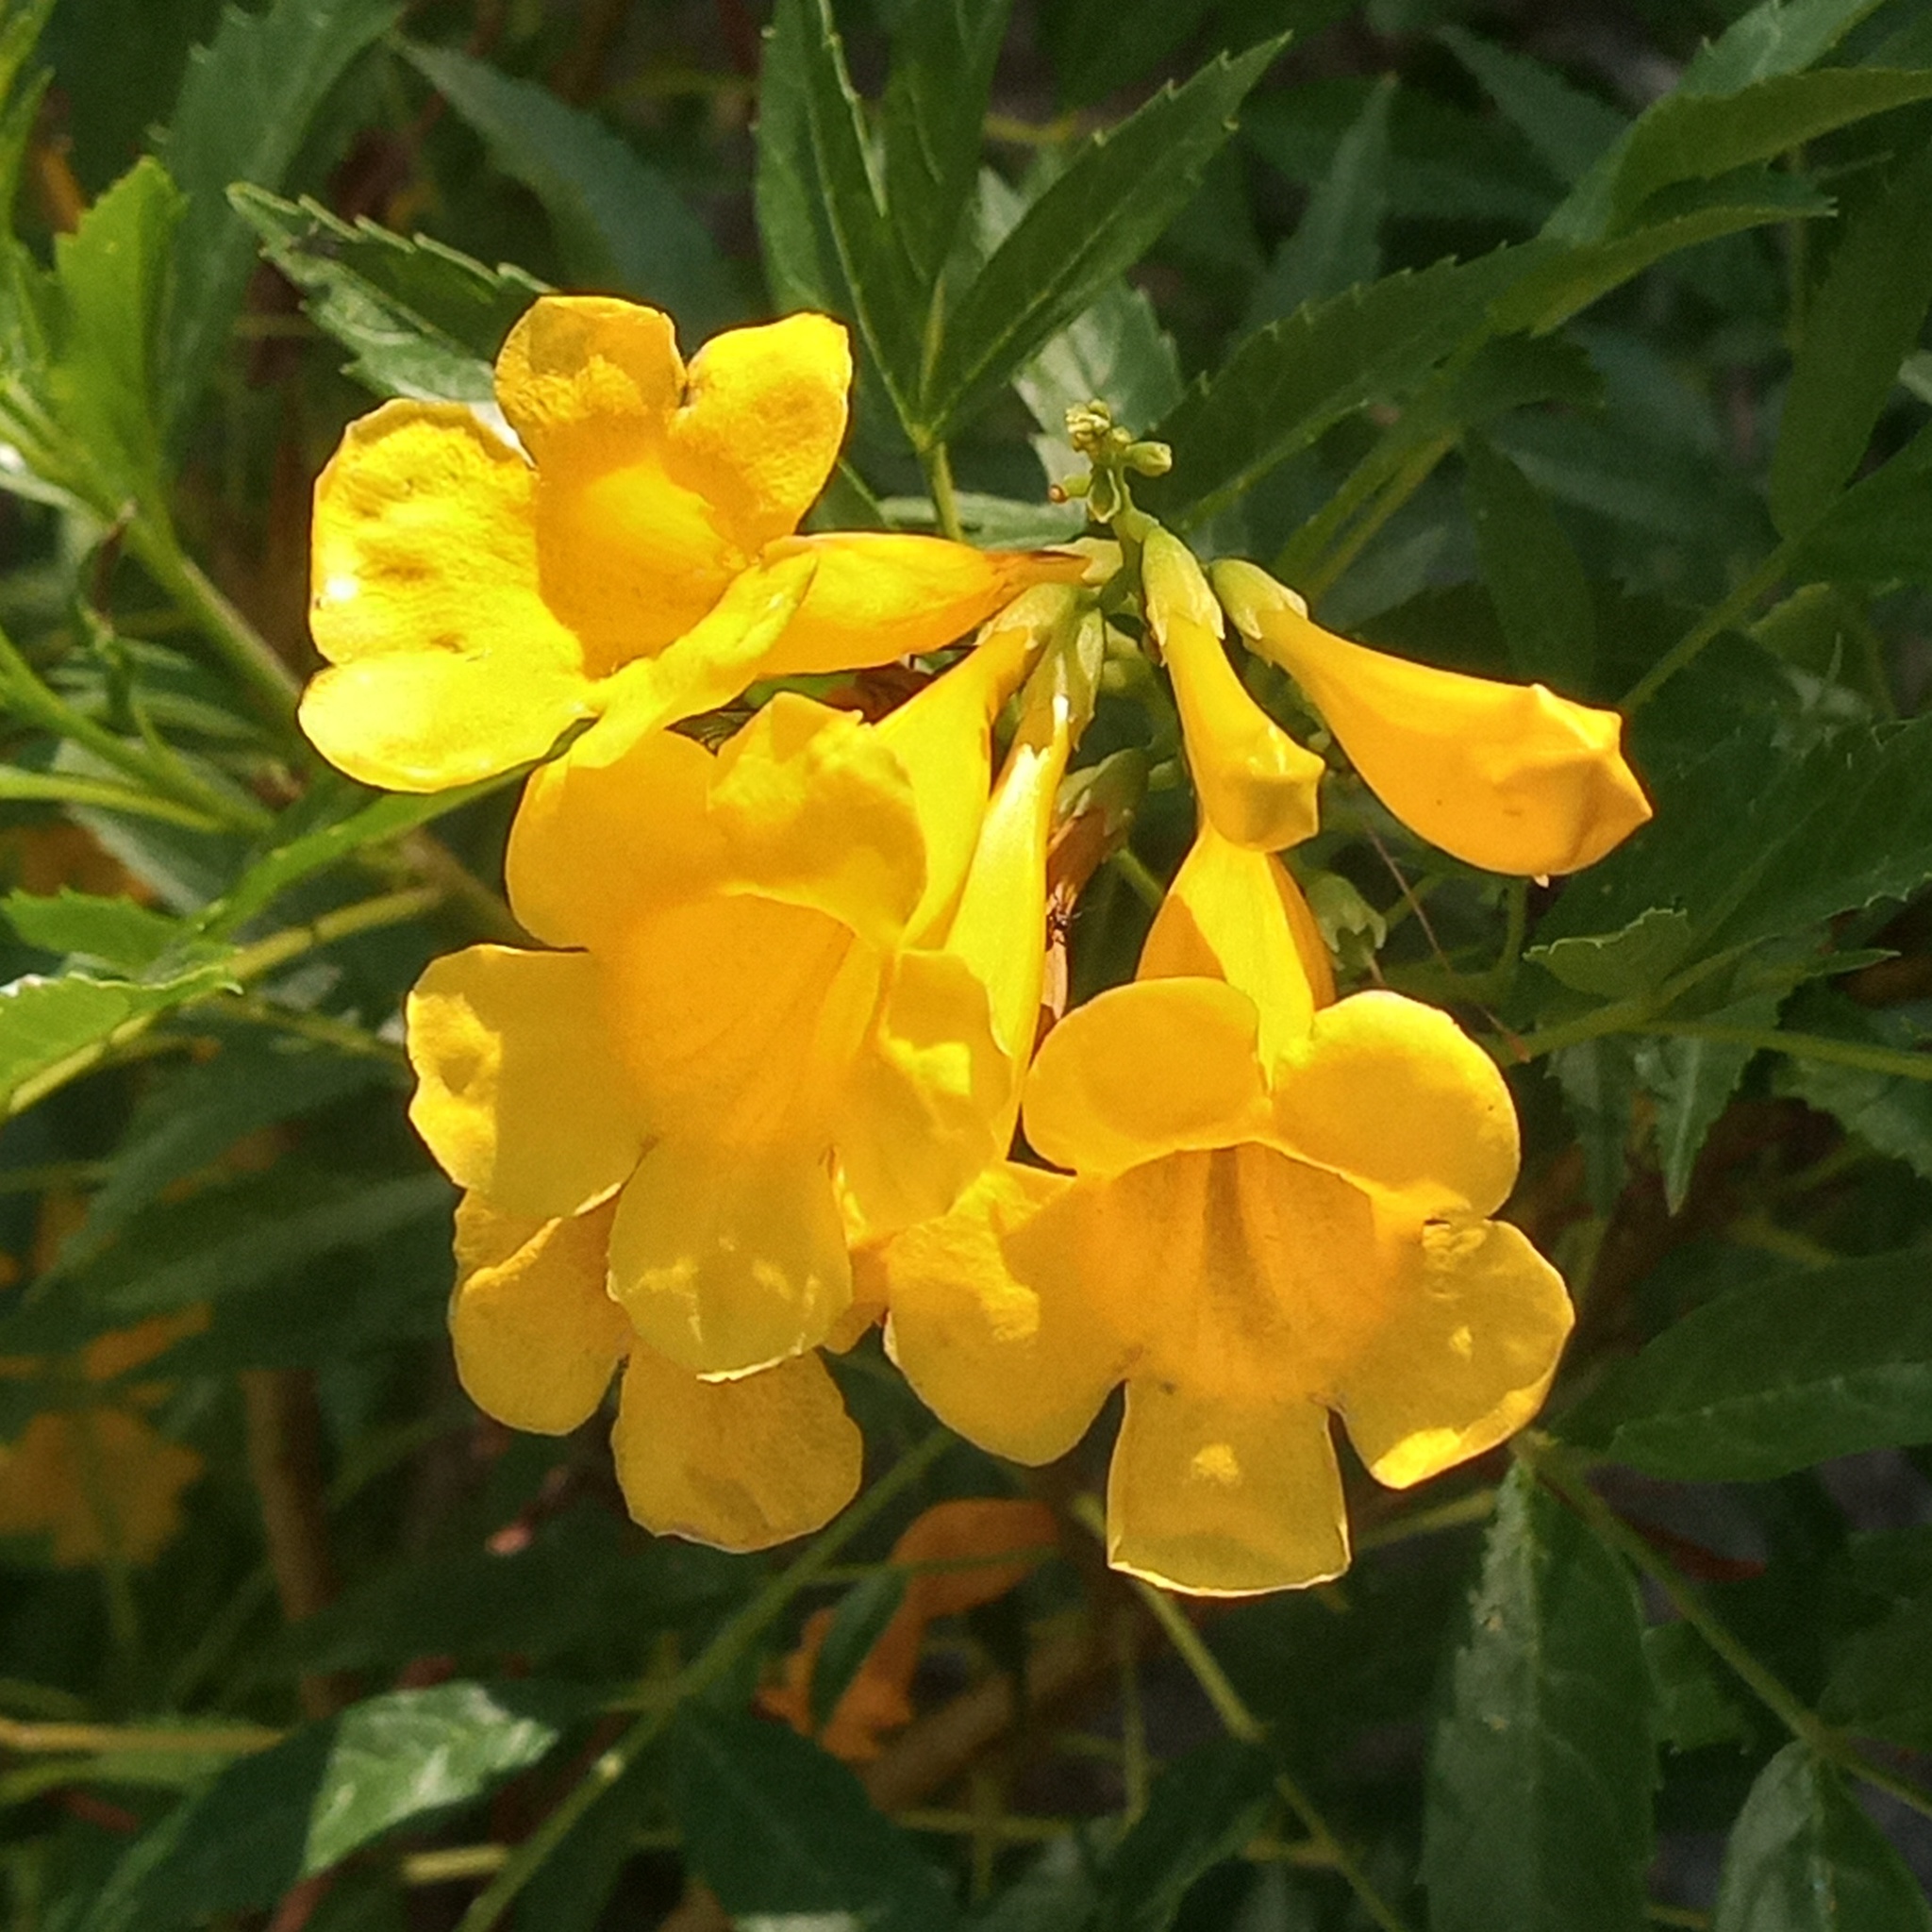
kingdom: Plantae
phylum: Tracheophyta
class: Magnoliopsida
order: Lamiales
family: Bignoniaceae
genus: Tecoma
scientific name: Tecoma stans
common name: Yellow trumpetbush
